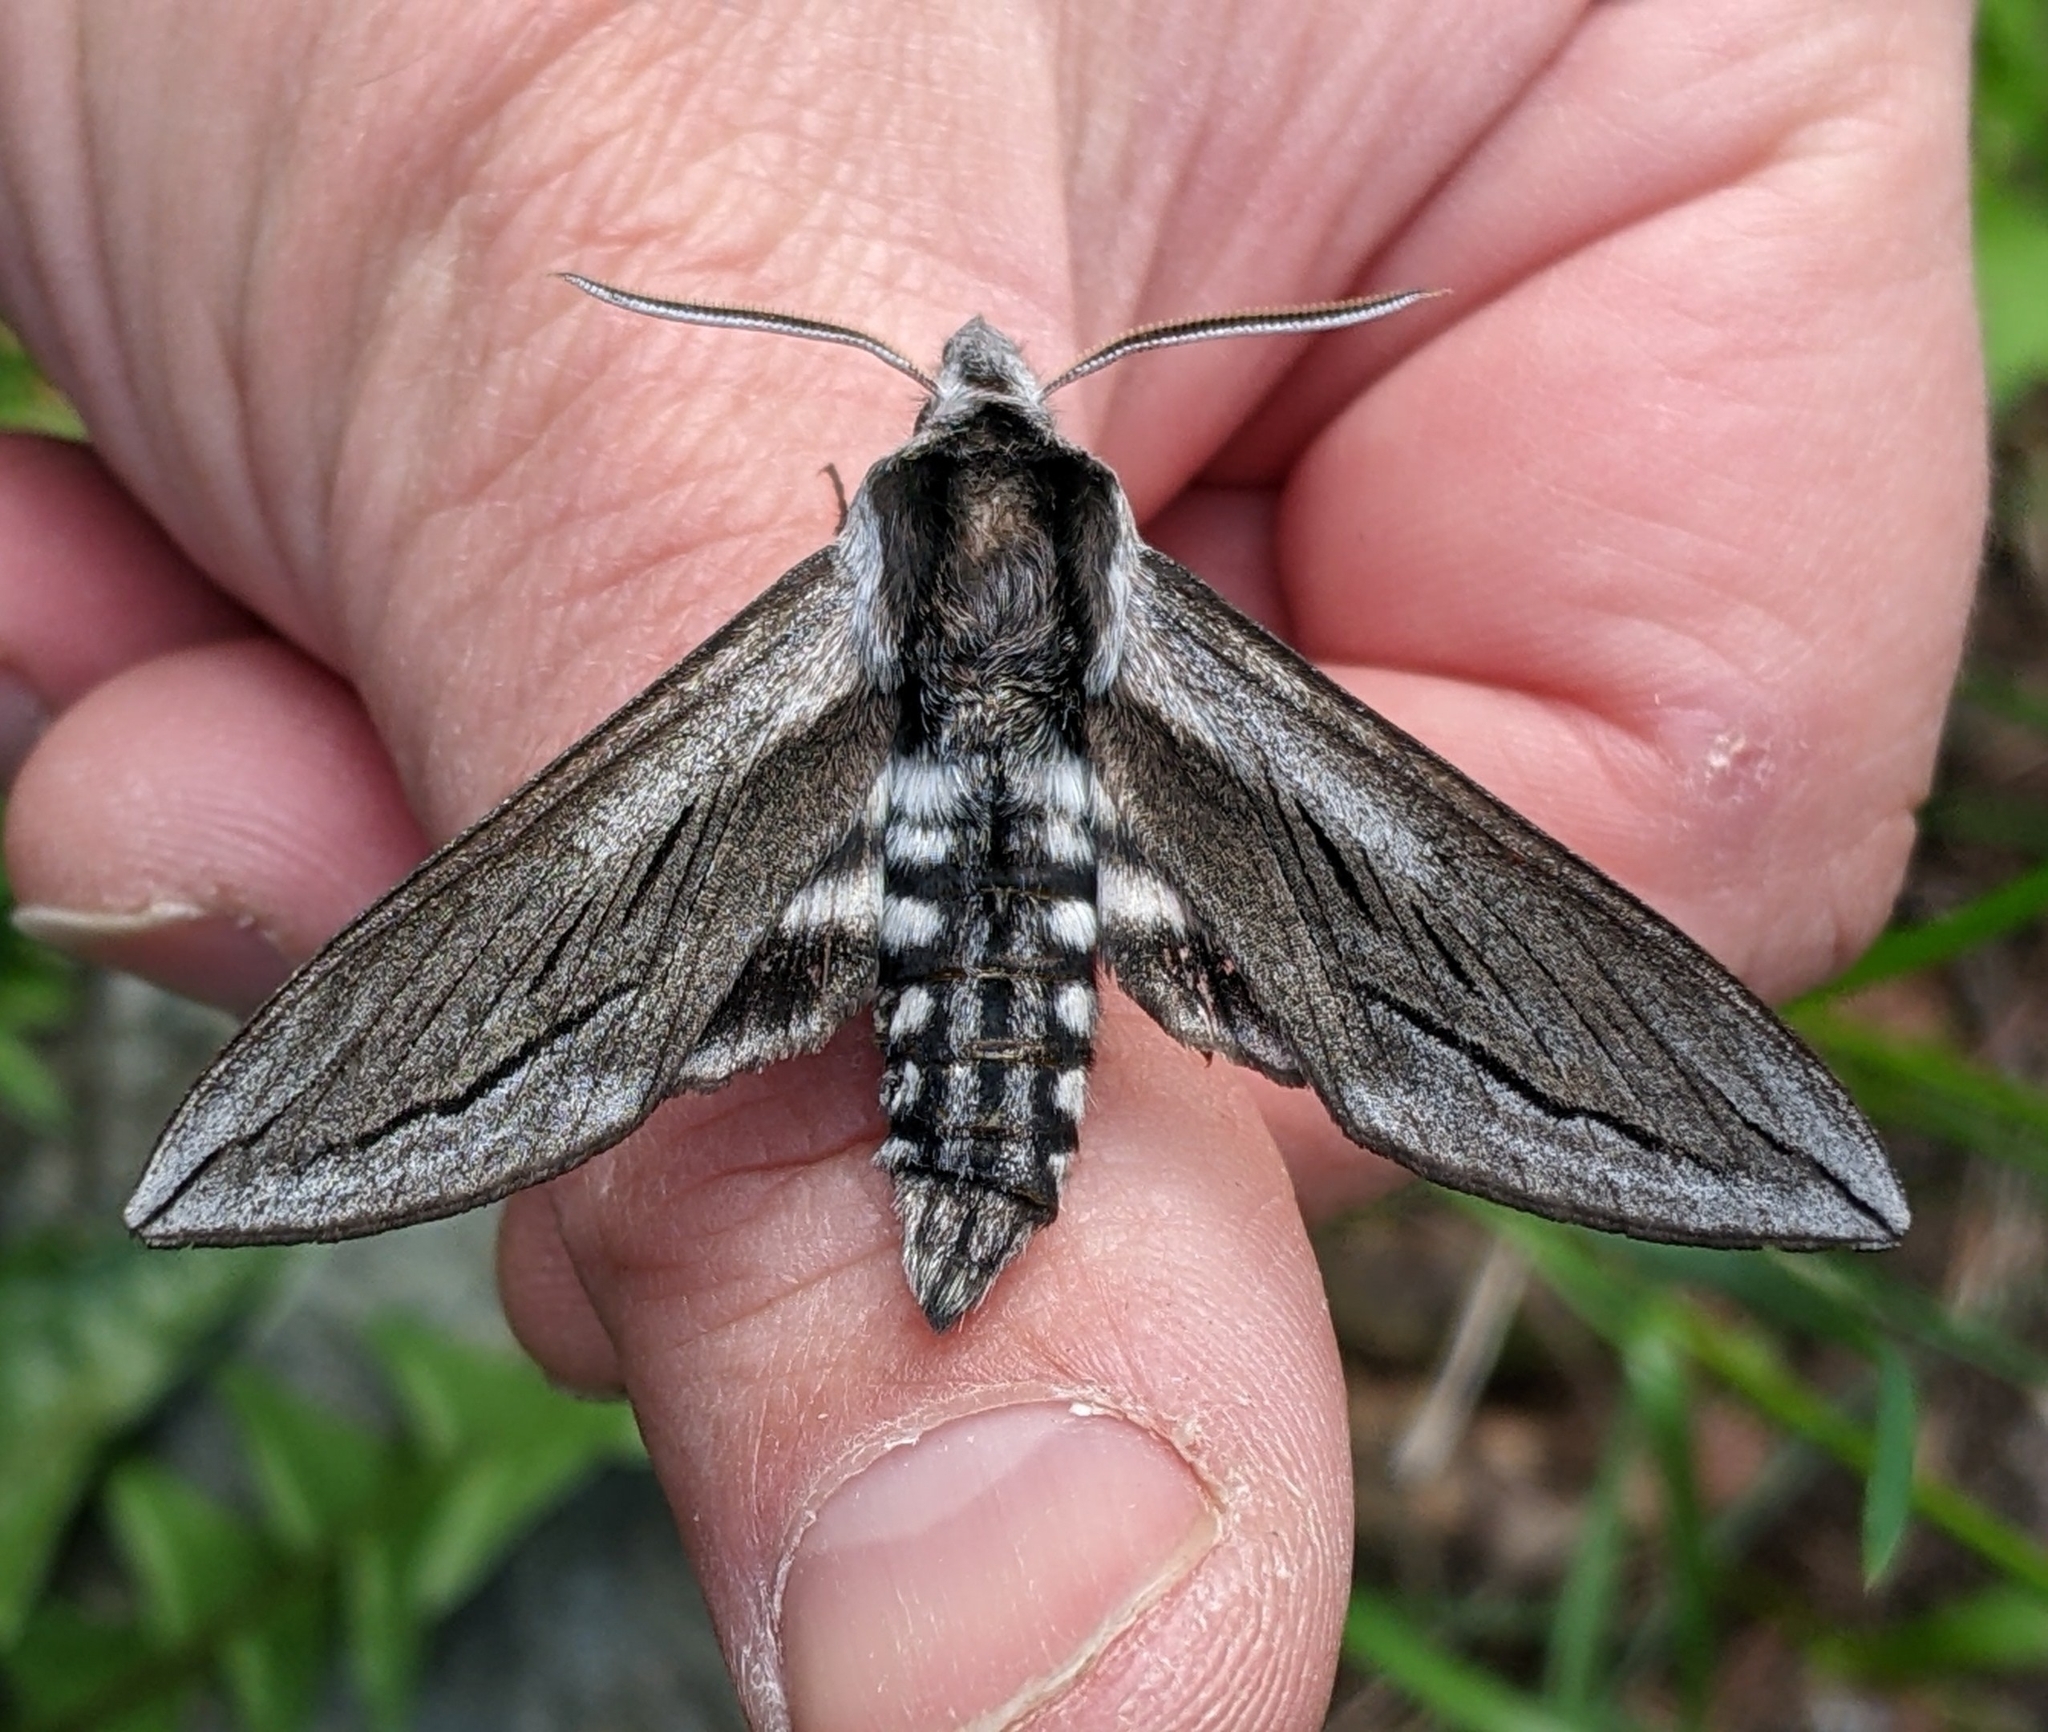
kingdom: Animalia
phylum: Arthropoda
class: Insecta
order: Lepidoptera
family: Sphingidae
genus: Sphinx
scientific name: Sphinx vashti
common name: Snowberry sphinx
